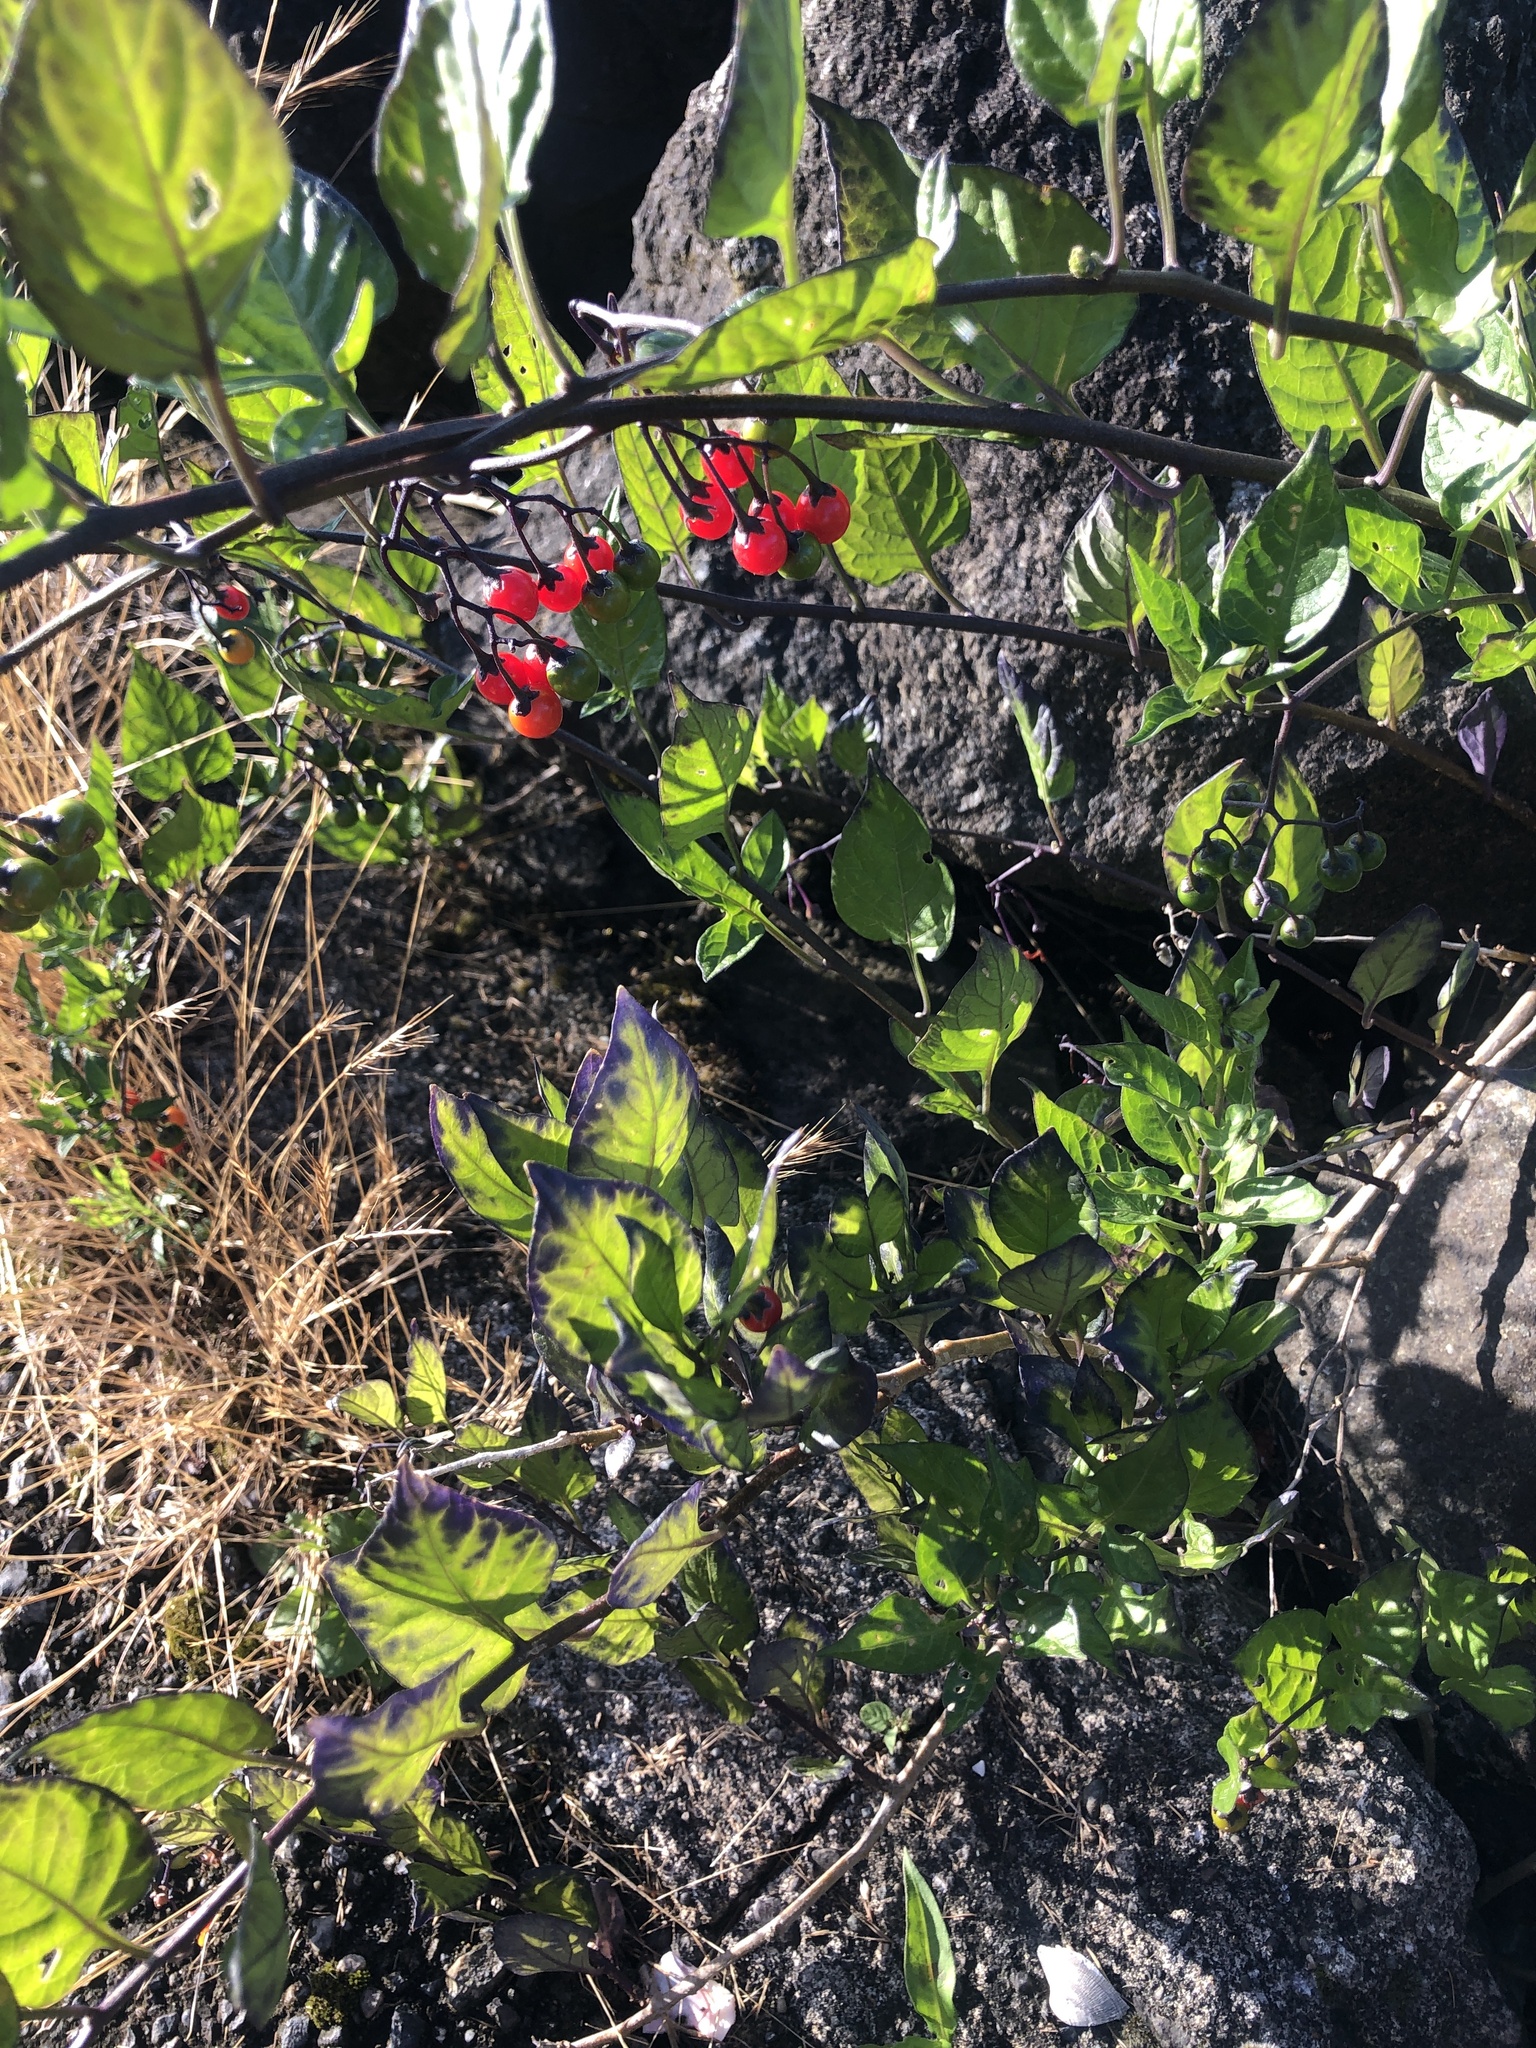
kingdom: Plantae
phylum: Tracheophyta
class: Magnoliopsida
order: Solanales
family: Solanaceae
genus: Solanum
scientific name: Solanum dulcamara
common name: Climbing nightshade
